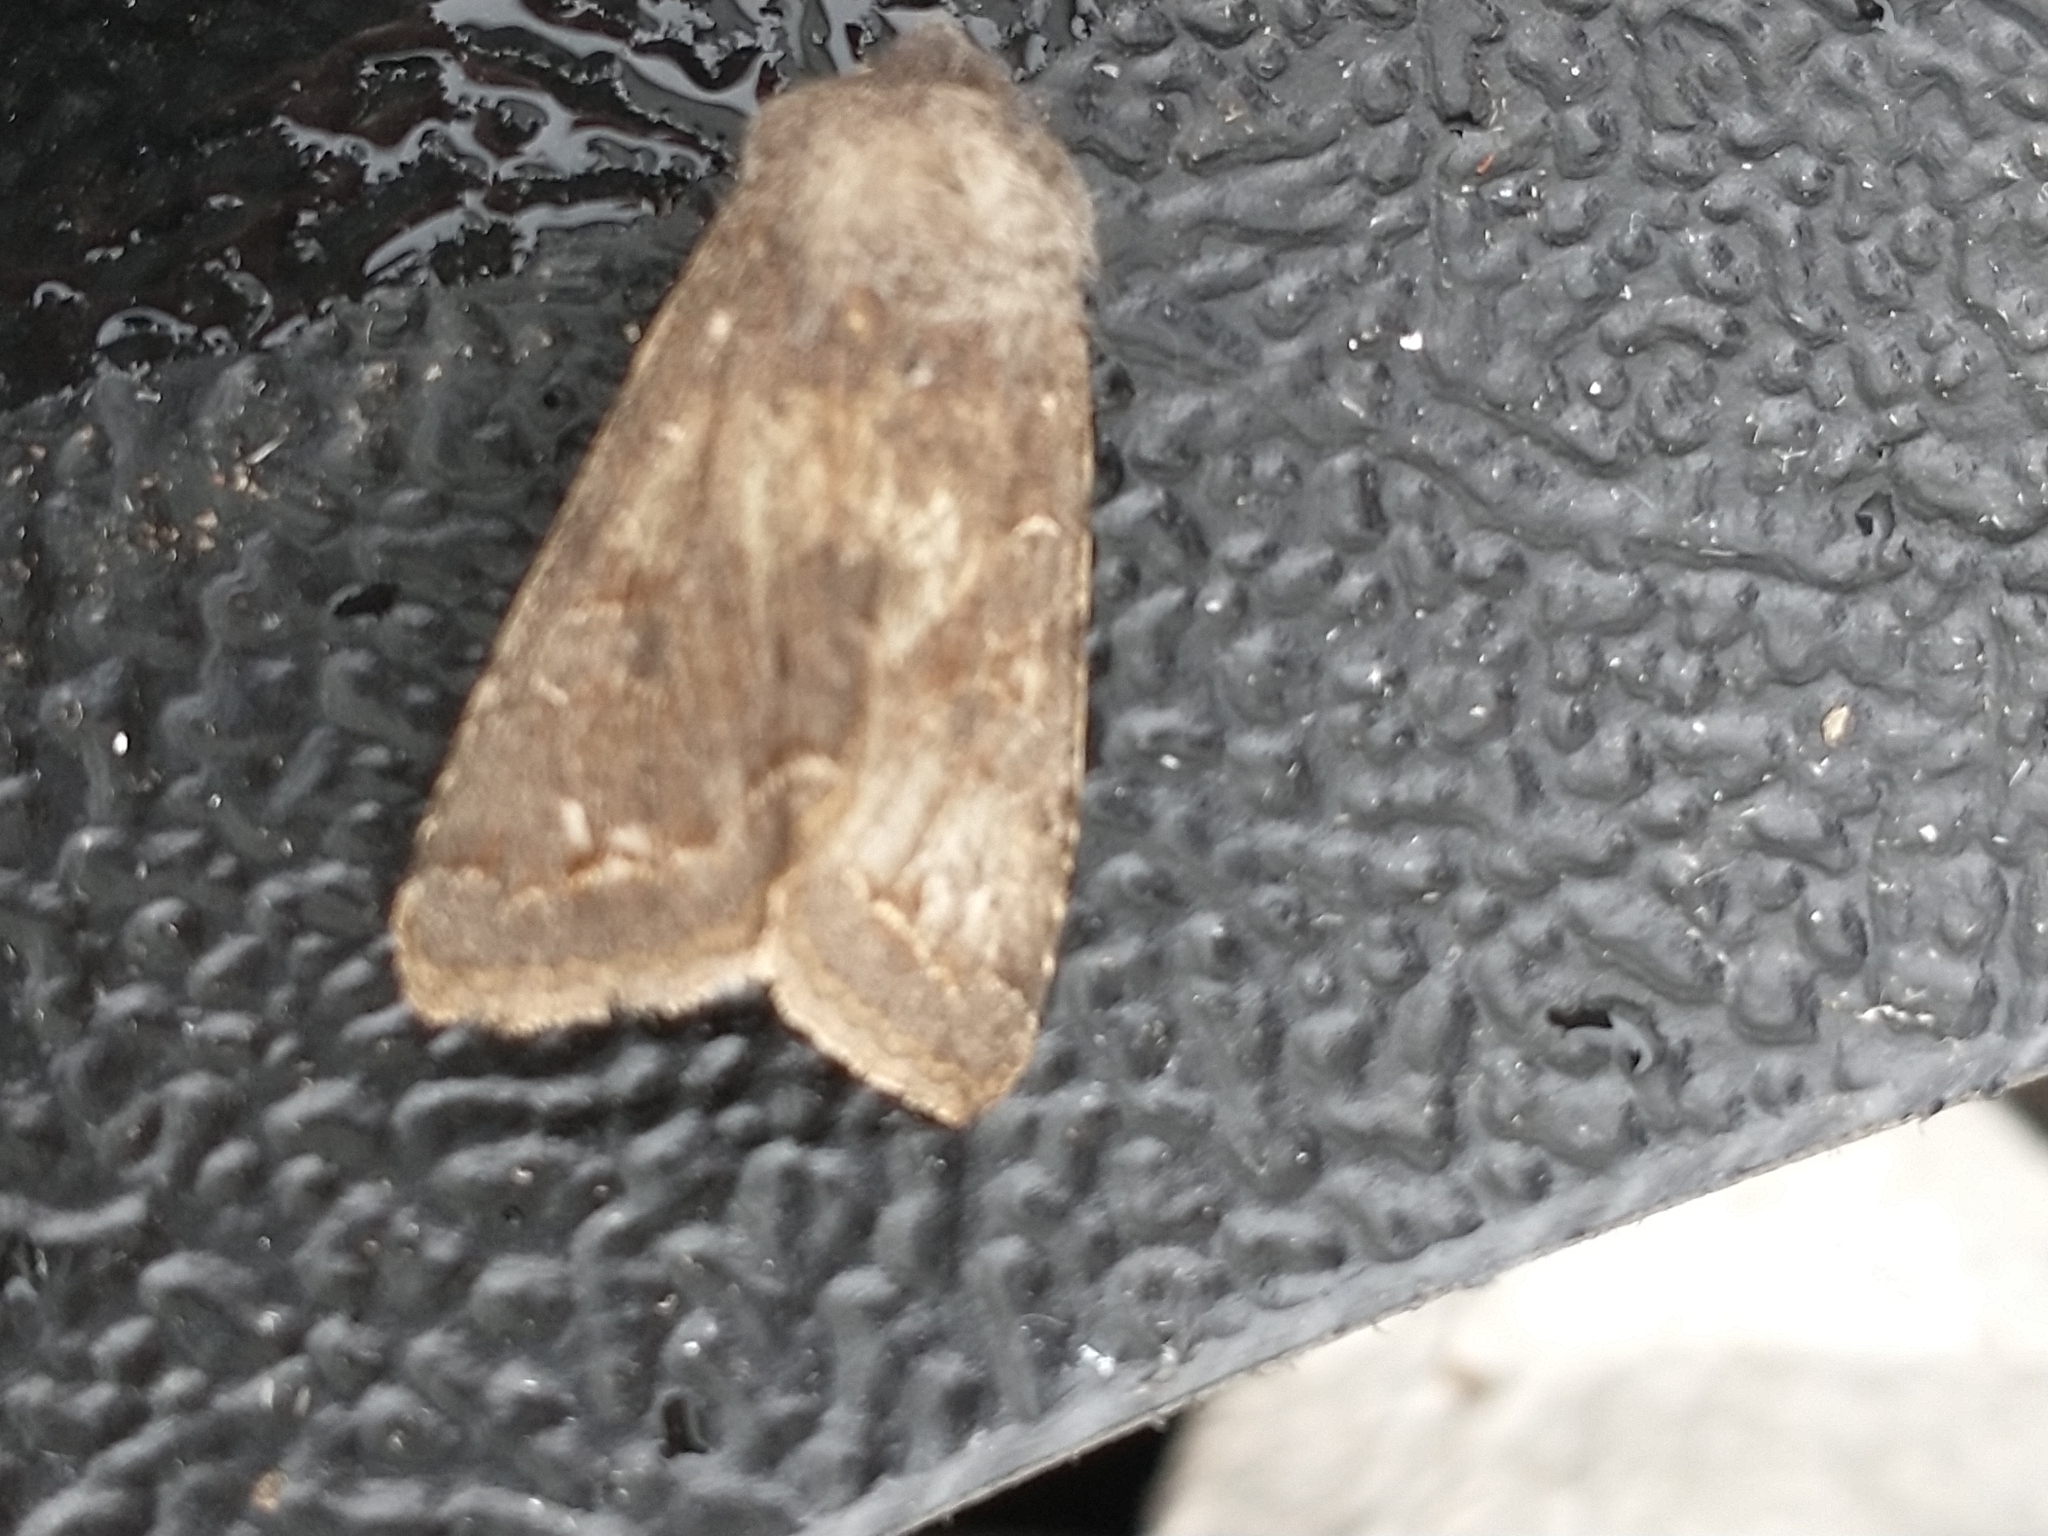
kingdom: Animalia
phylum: Arthropoda
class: Insecta
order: Lepidoptera
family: Noctuidae
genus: Orthosia
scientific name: Orthosia incerta
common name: Clouded drab
